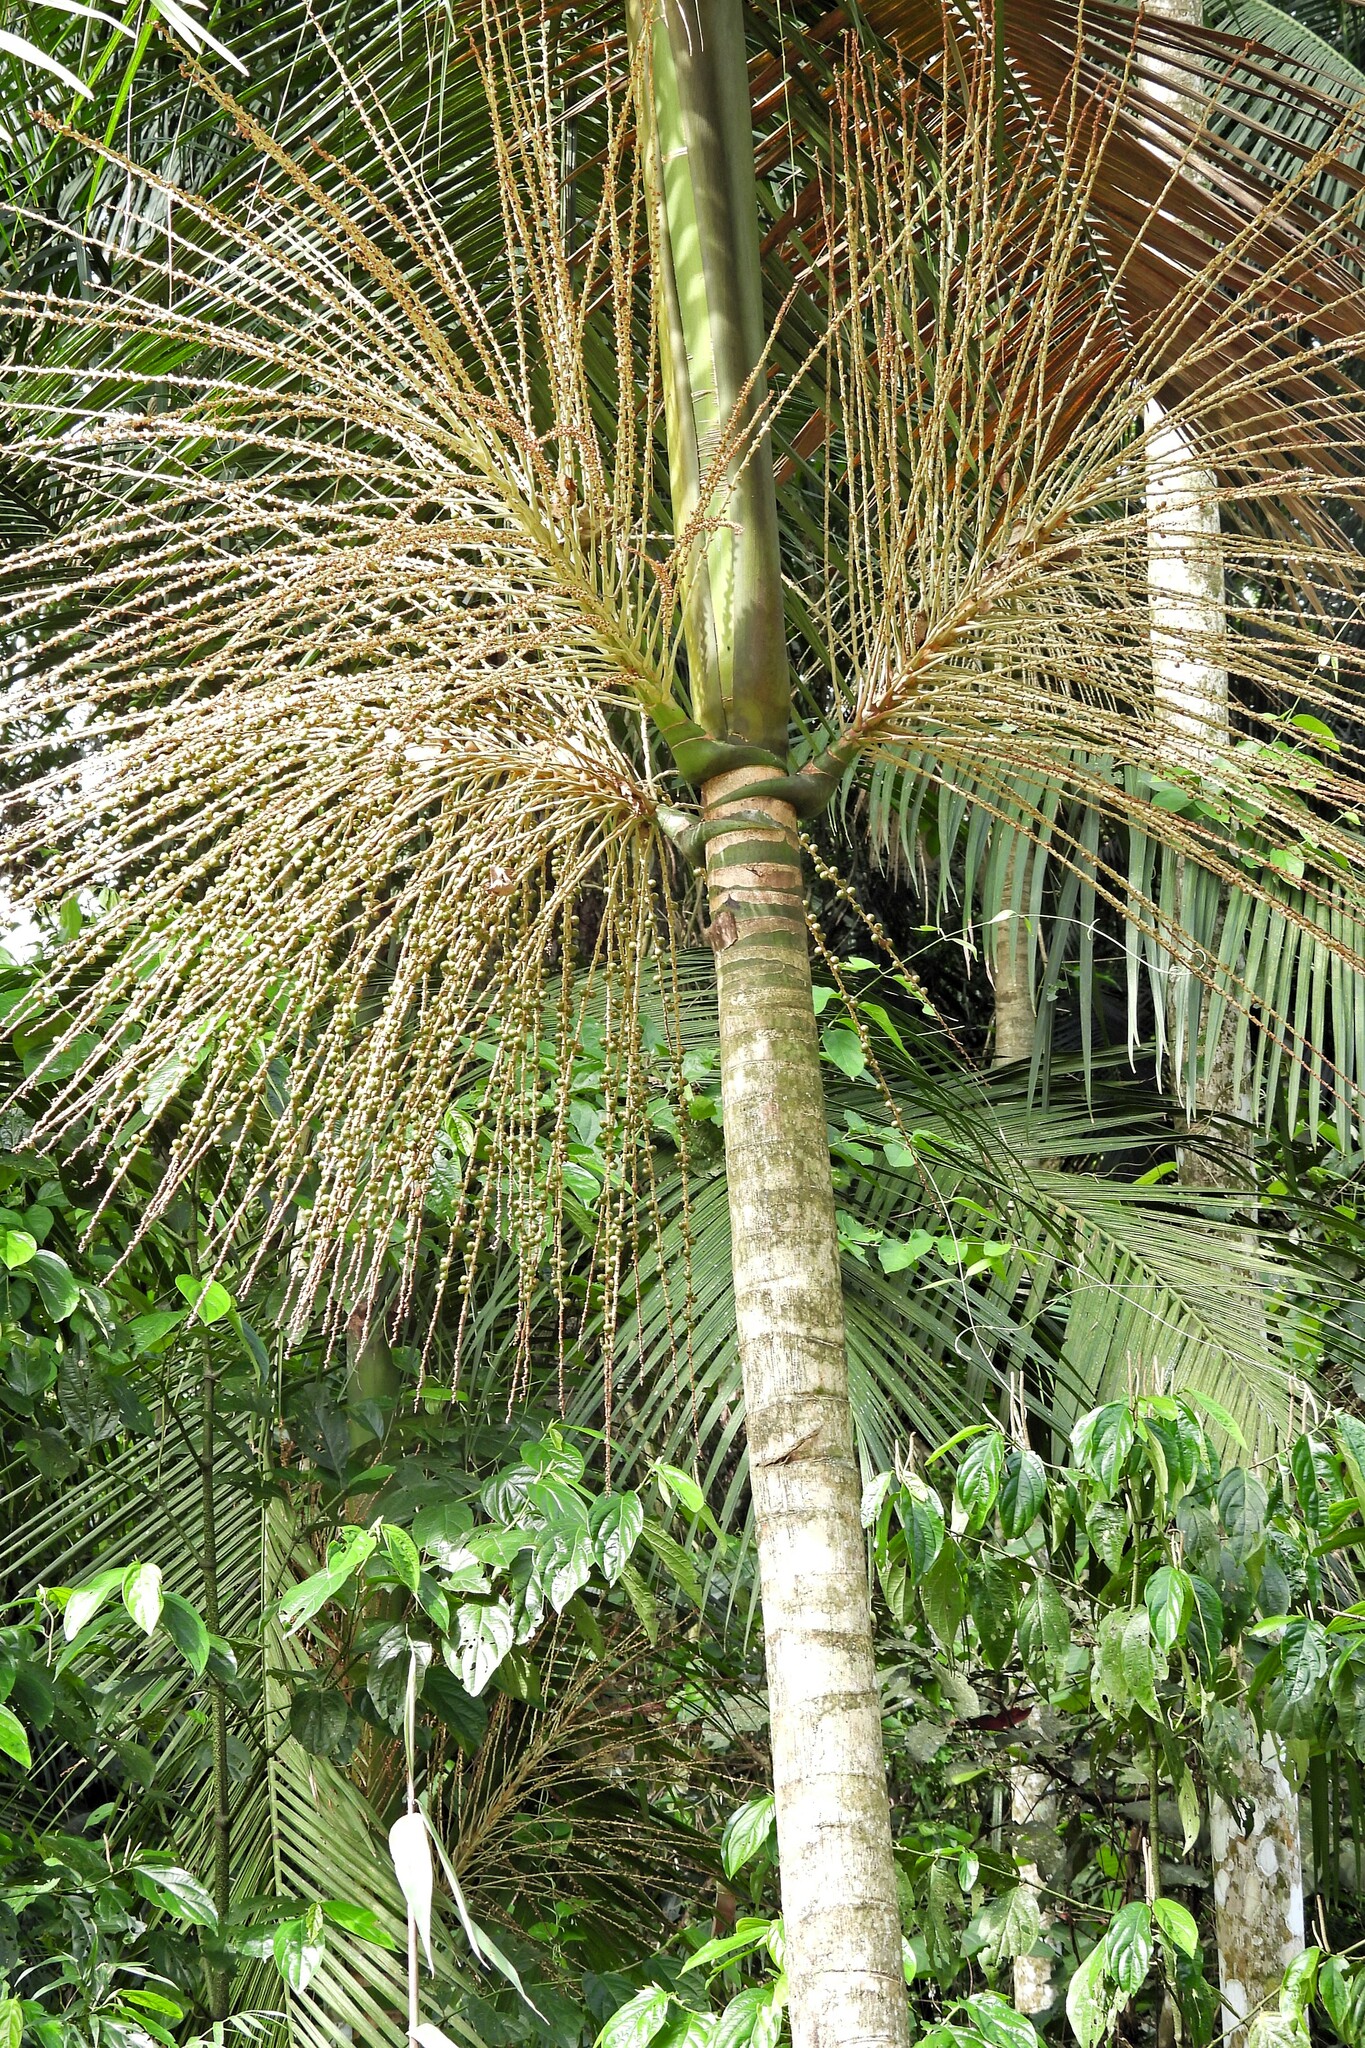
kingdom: Plantae
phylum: Tracheophyta
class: Liliopsida
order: Arecales
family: Arecaceae
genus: Euterpe
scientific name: Euterpe edulis
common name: Assai palm
